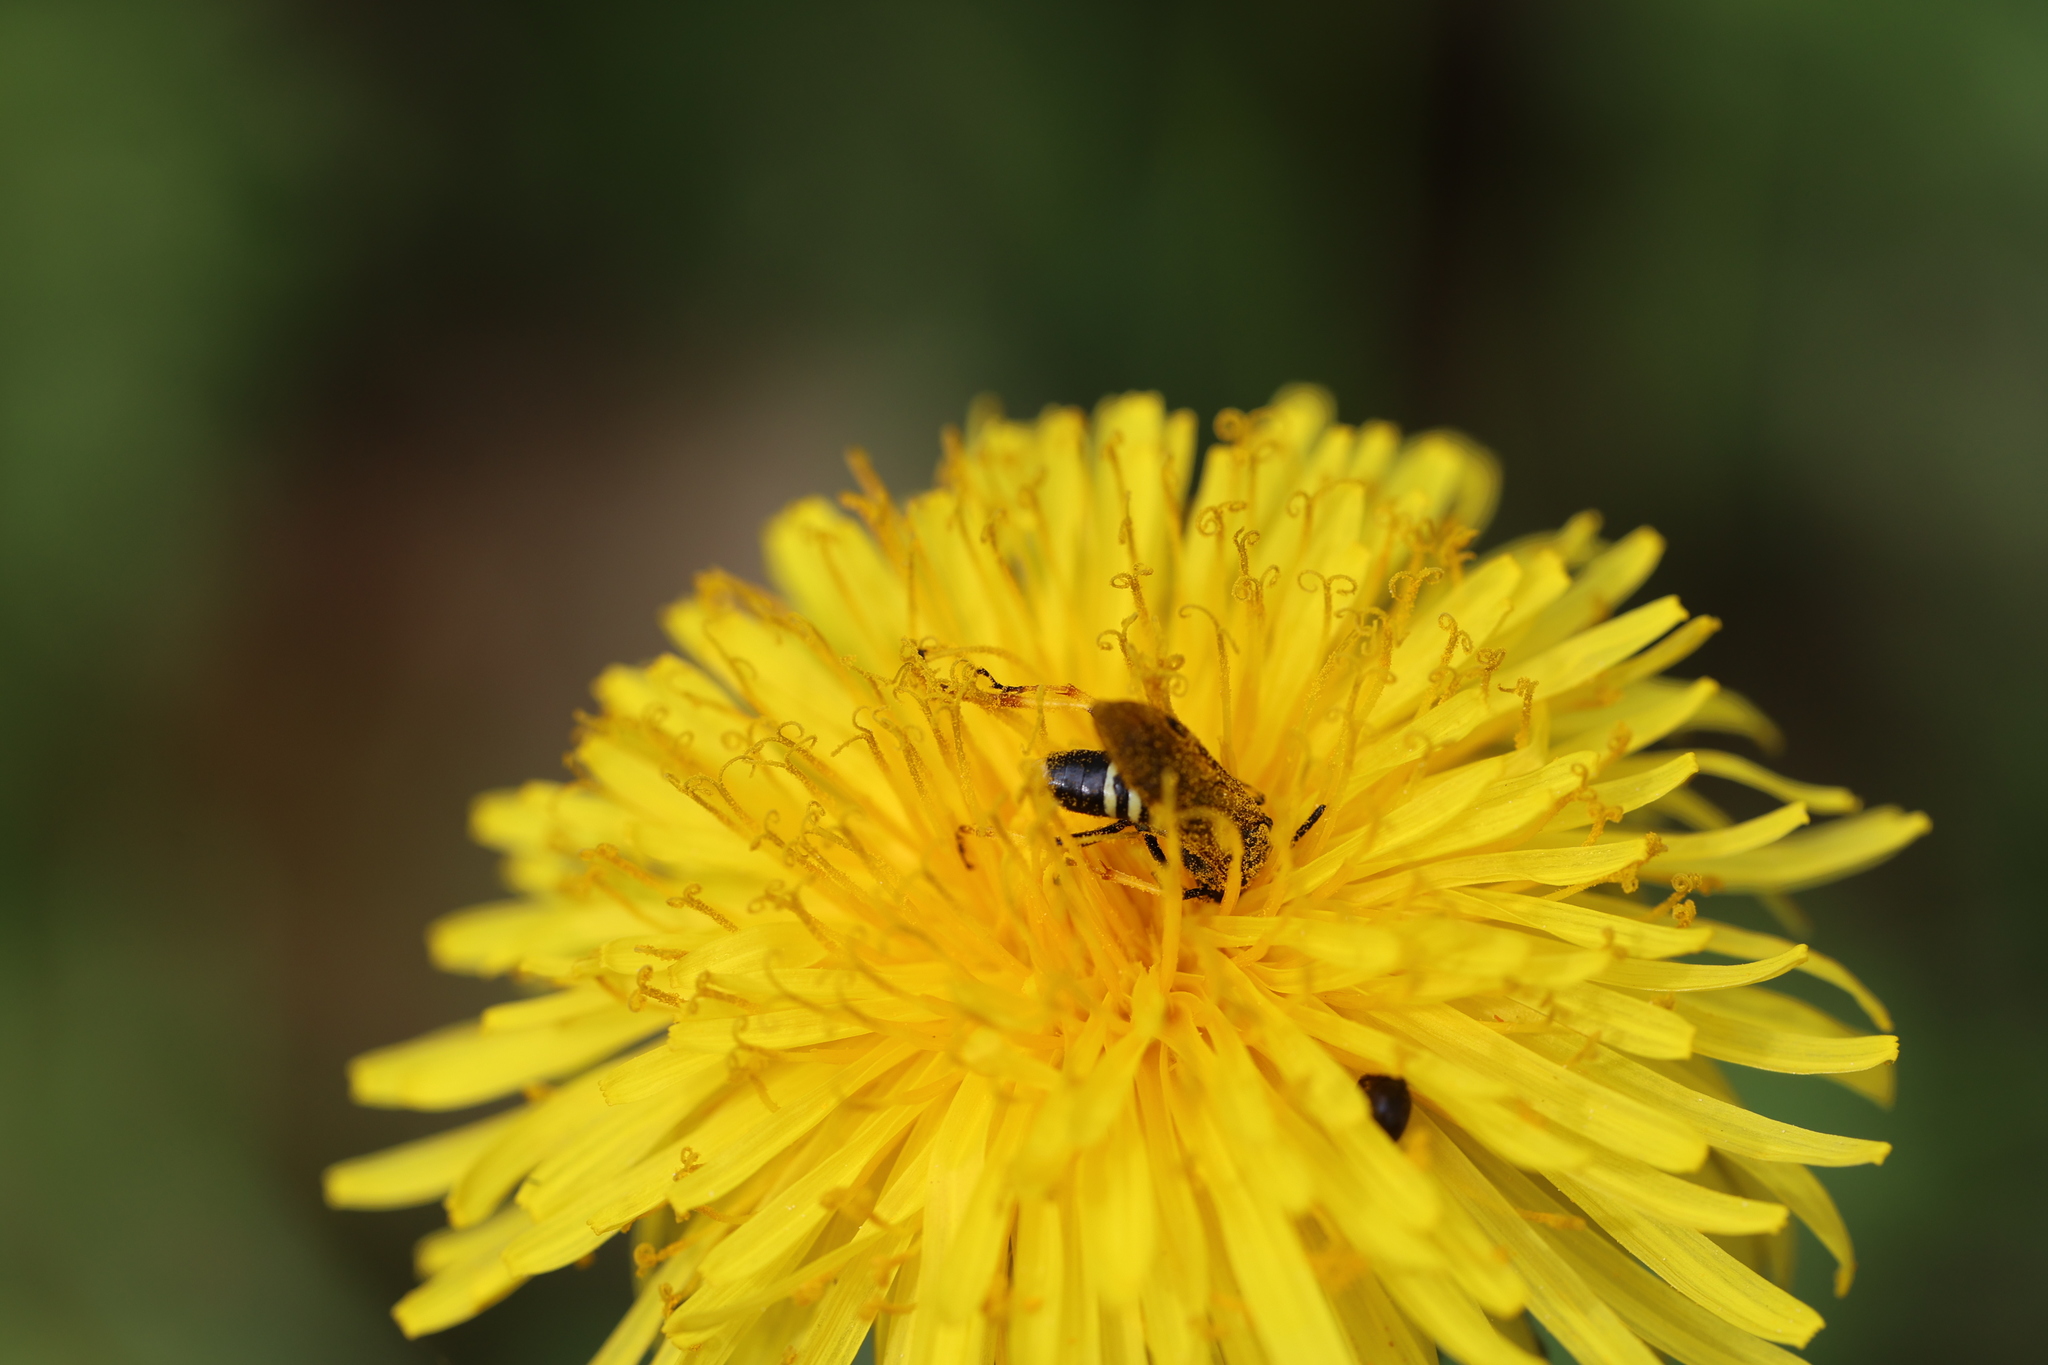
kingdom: Animalia
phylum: Arthropoda
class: Insecta
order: Hymenoptera
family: Tenthredinidae
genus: Tenthredo
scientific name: Tenthredo koehleri
